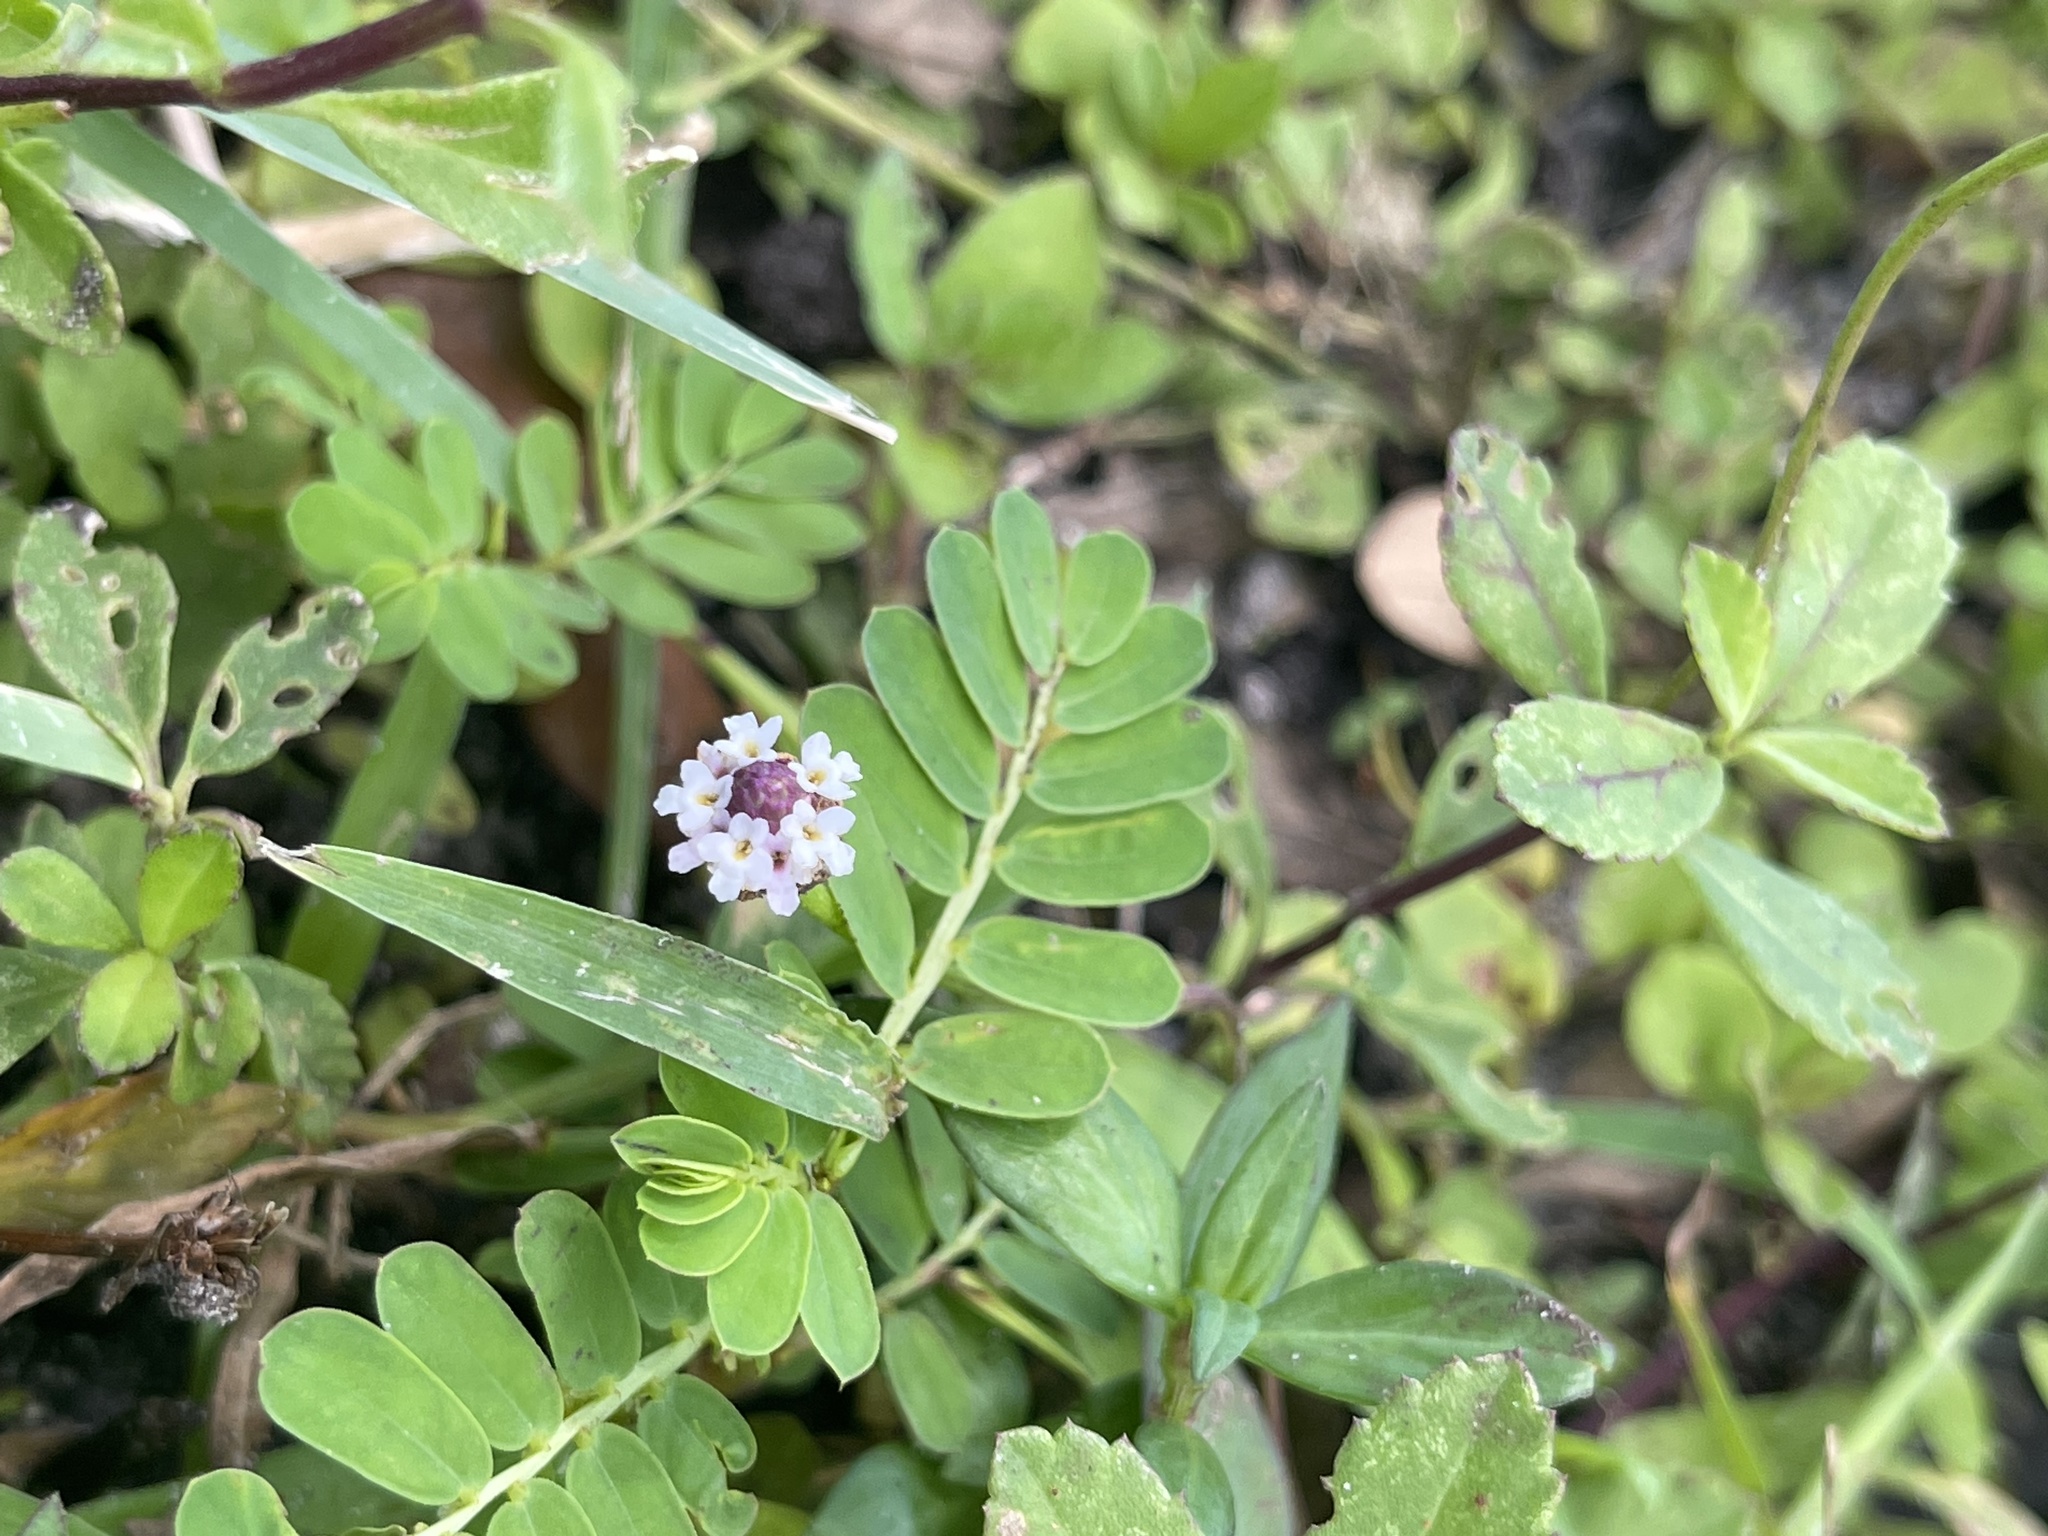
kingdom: Plantae
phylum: Tracheophyta
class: Magnoliopsida
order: Lamiales
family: Verbenaceae
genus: Phyla
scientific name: Phyla nodiflora
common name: Frogfruit
